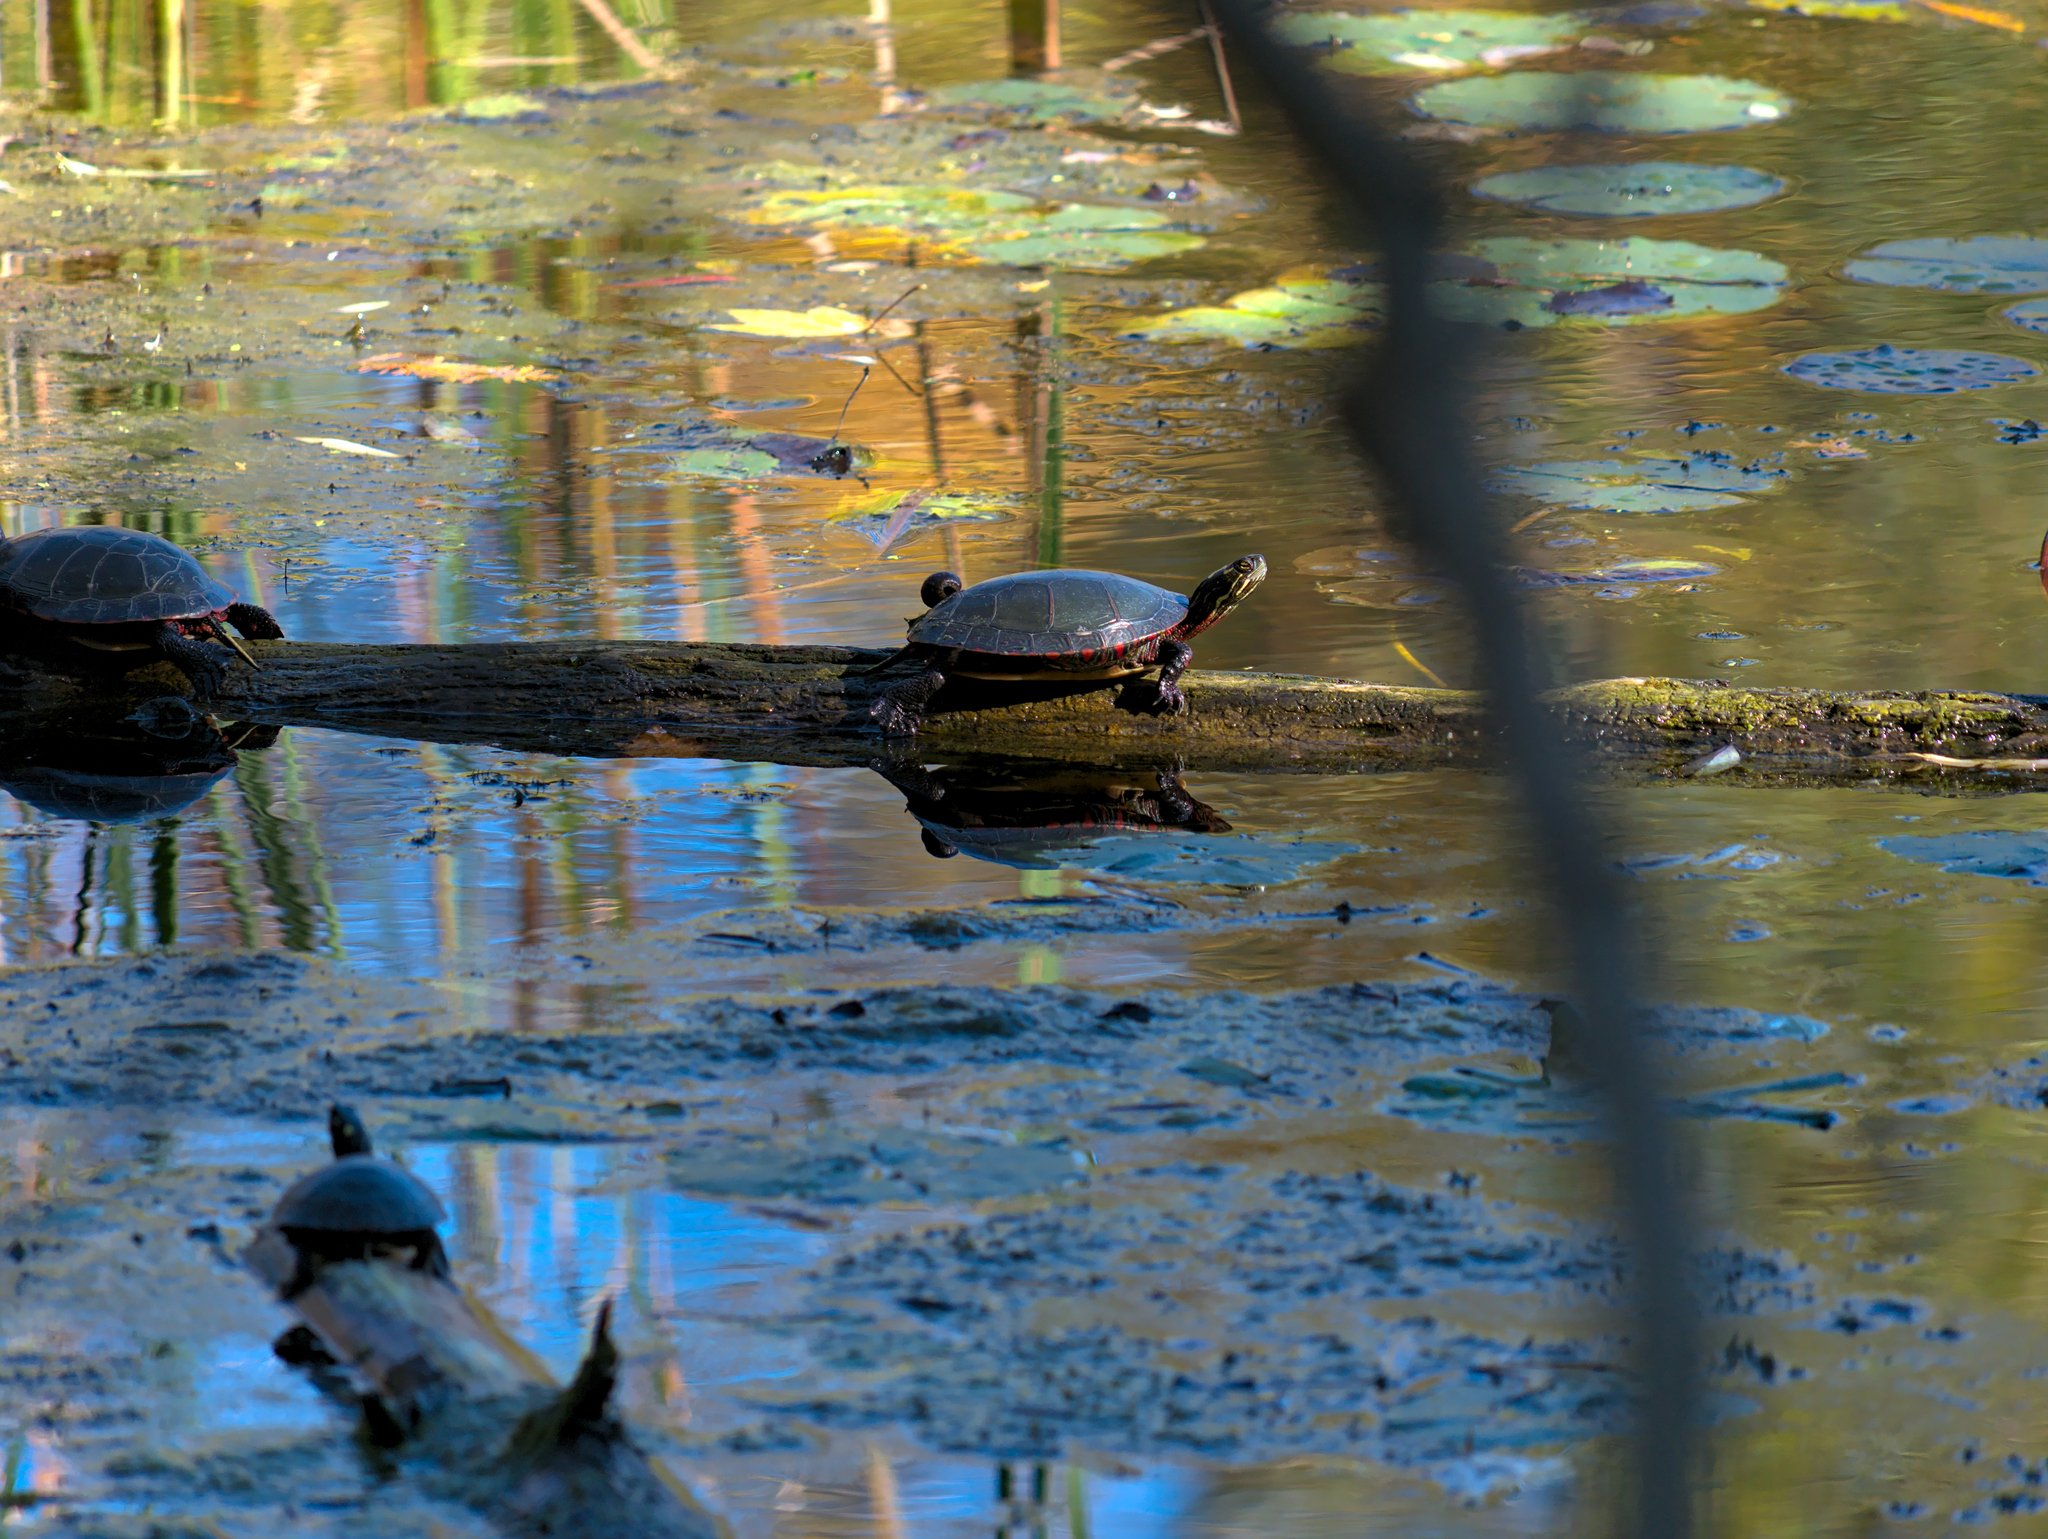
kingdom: Animalia
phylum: Chordata
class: Testudines
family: Emydidae
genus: Chrysemys
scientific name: Chrysemys picta
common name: Painted turtle
